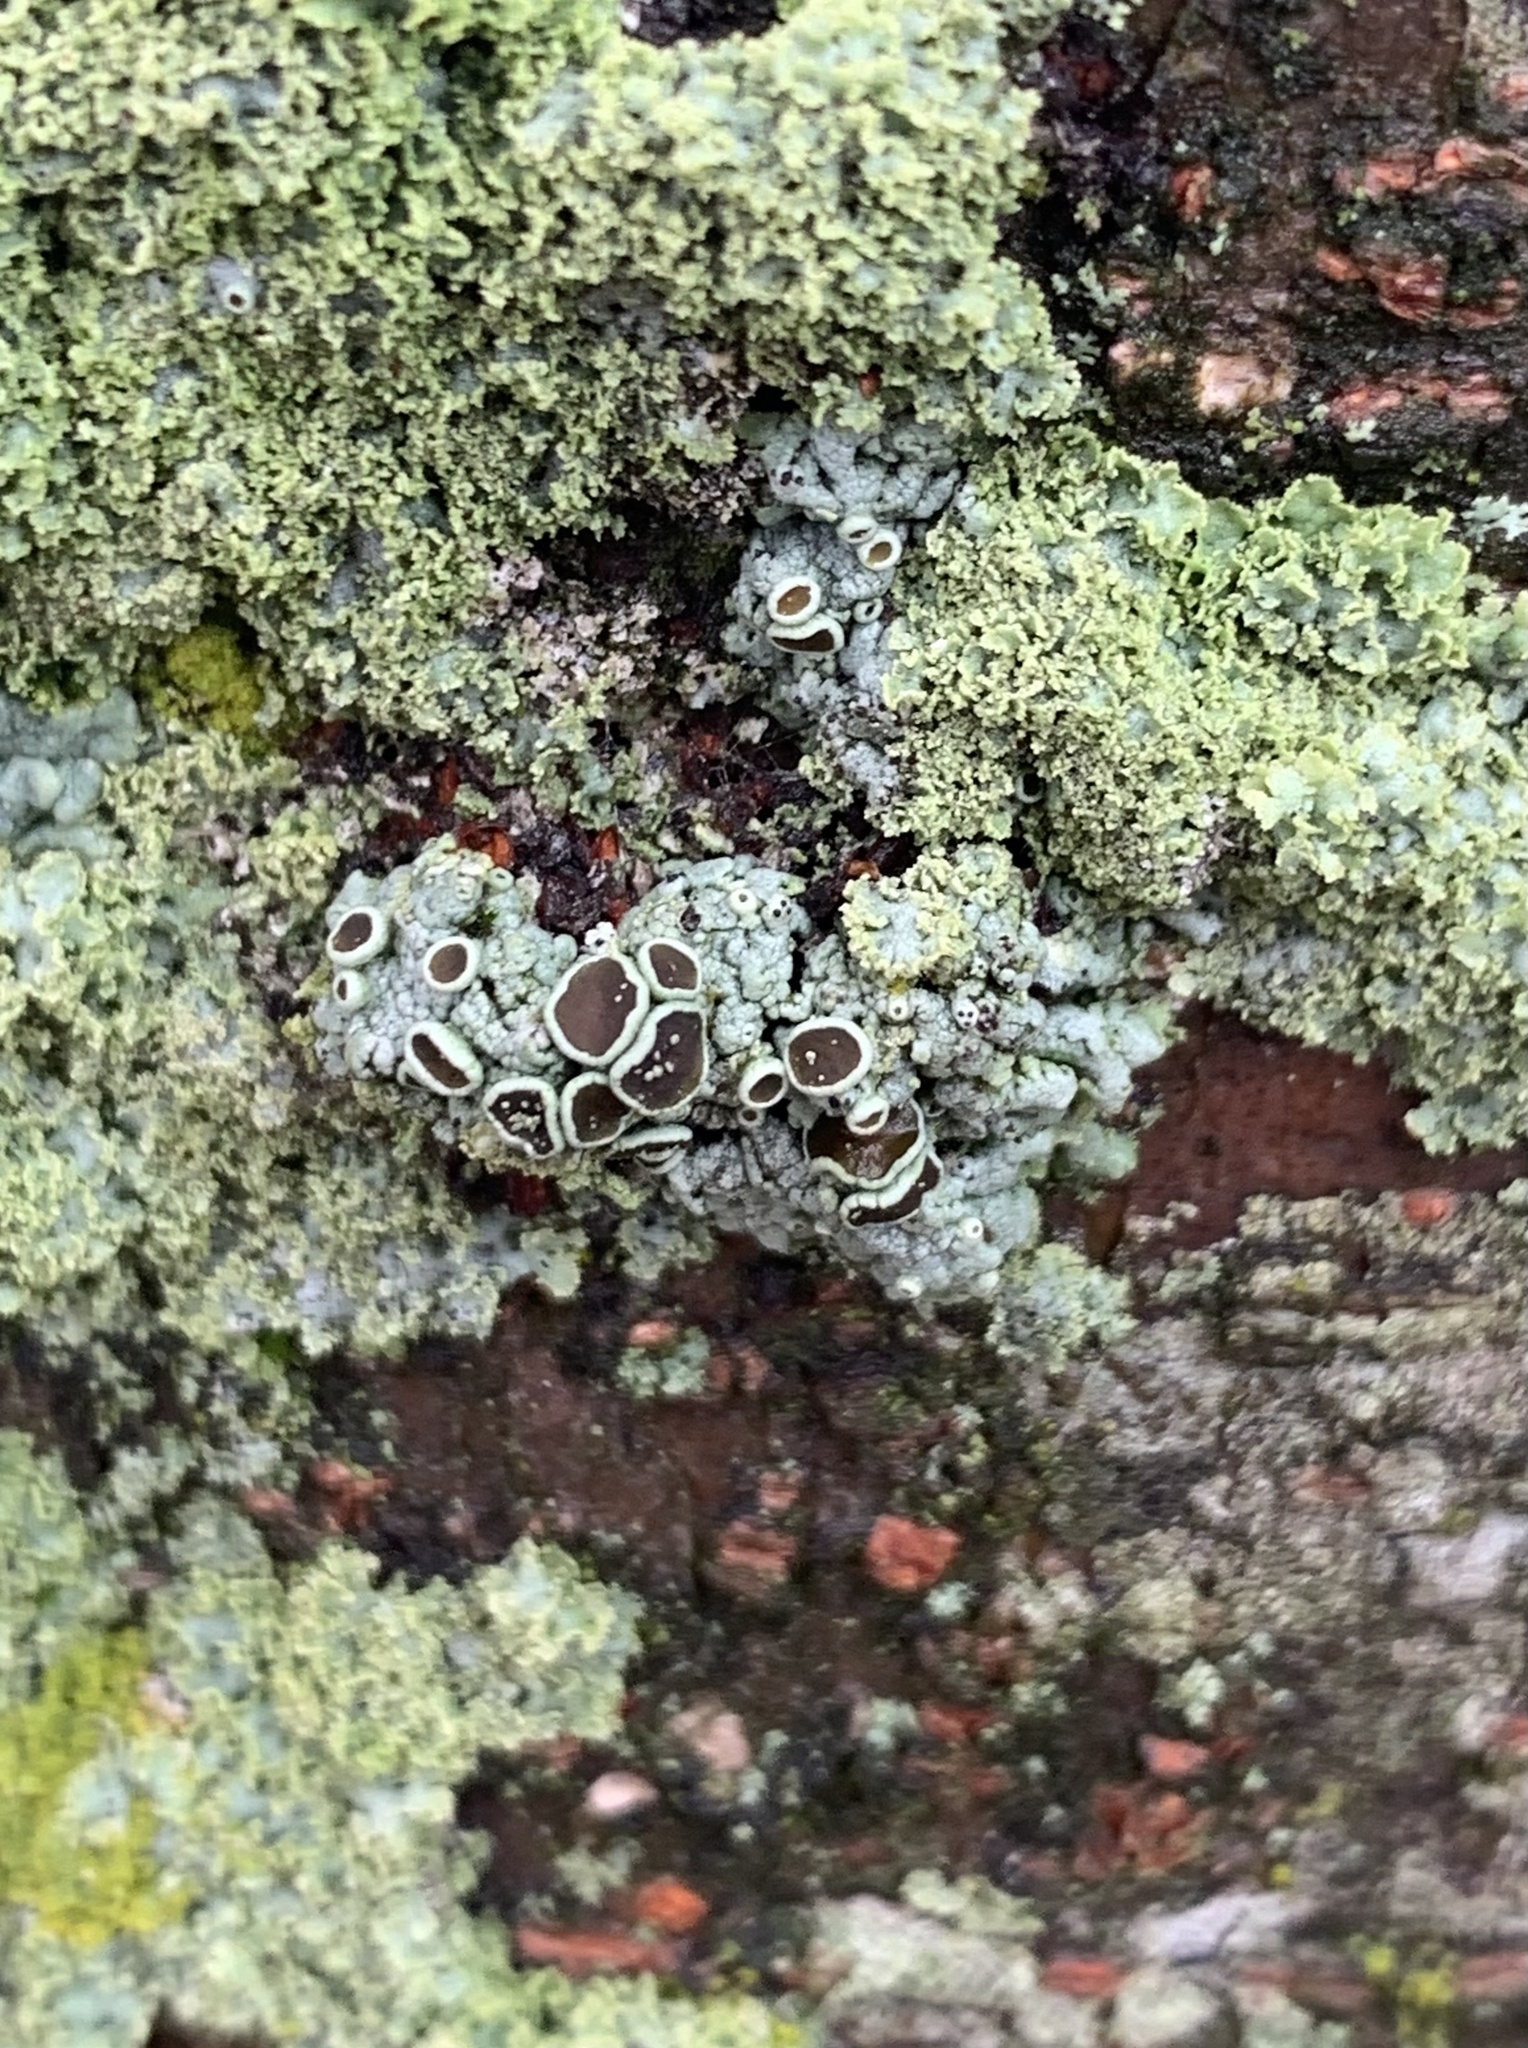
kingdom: Fungi
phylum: Ascomycota
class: Lecanoromycetes
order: Caliciales
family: Physciaceae
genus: Physcia
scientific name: Physcia millegrana
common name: Rosette lichen
